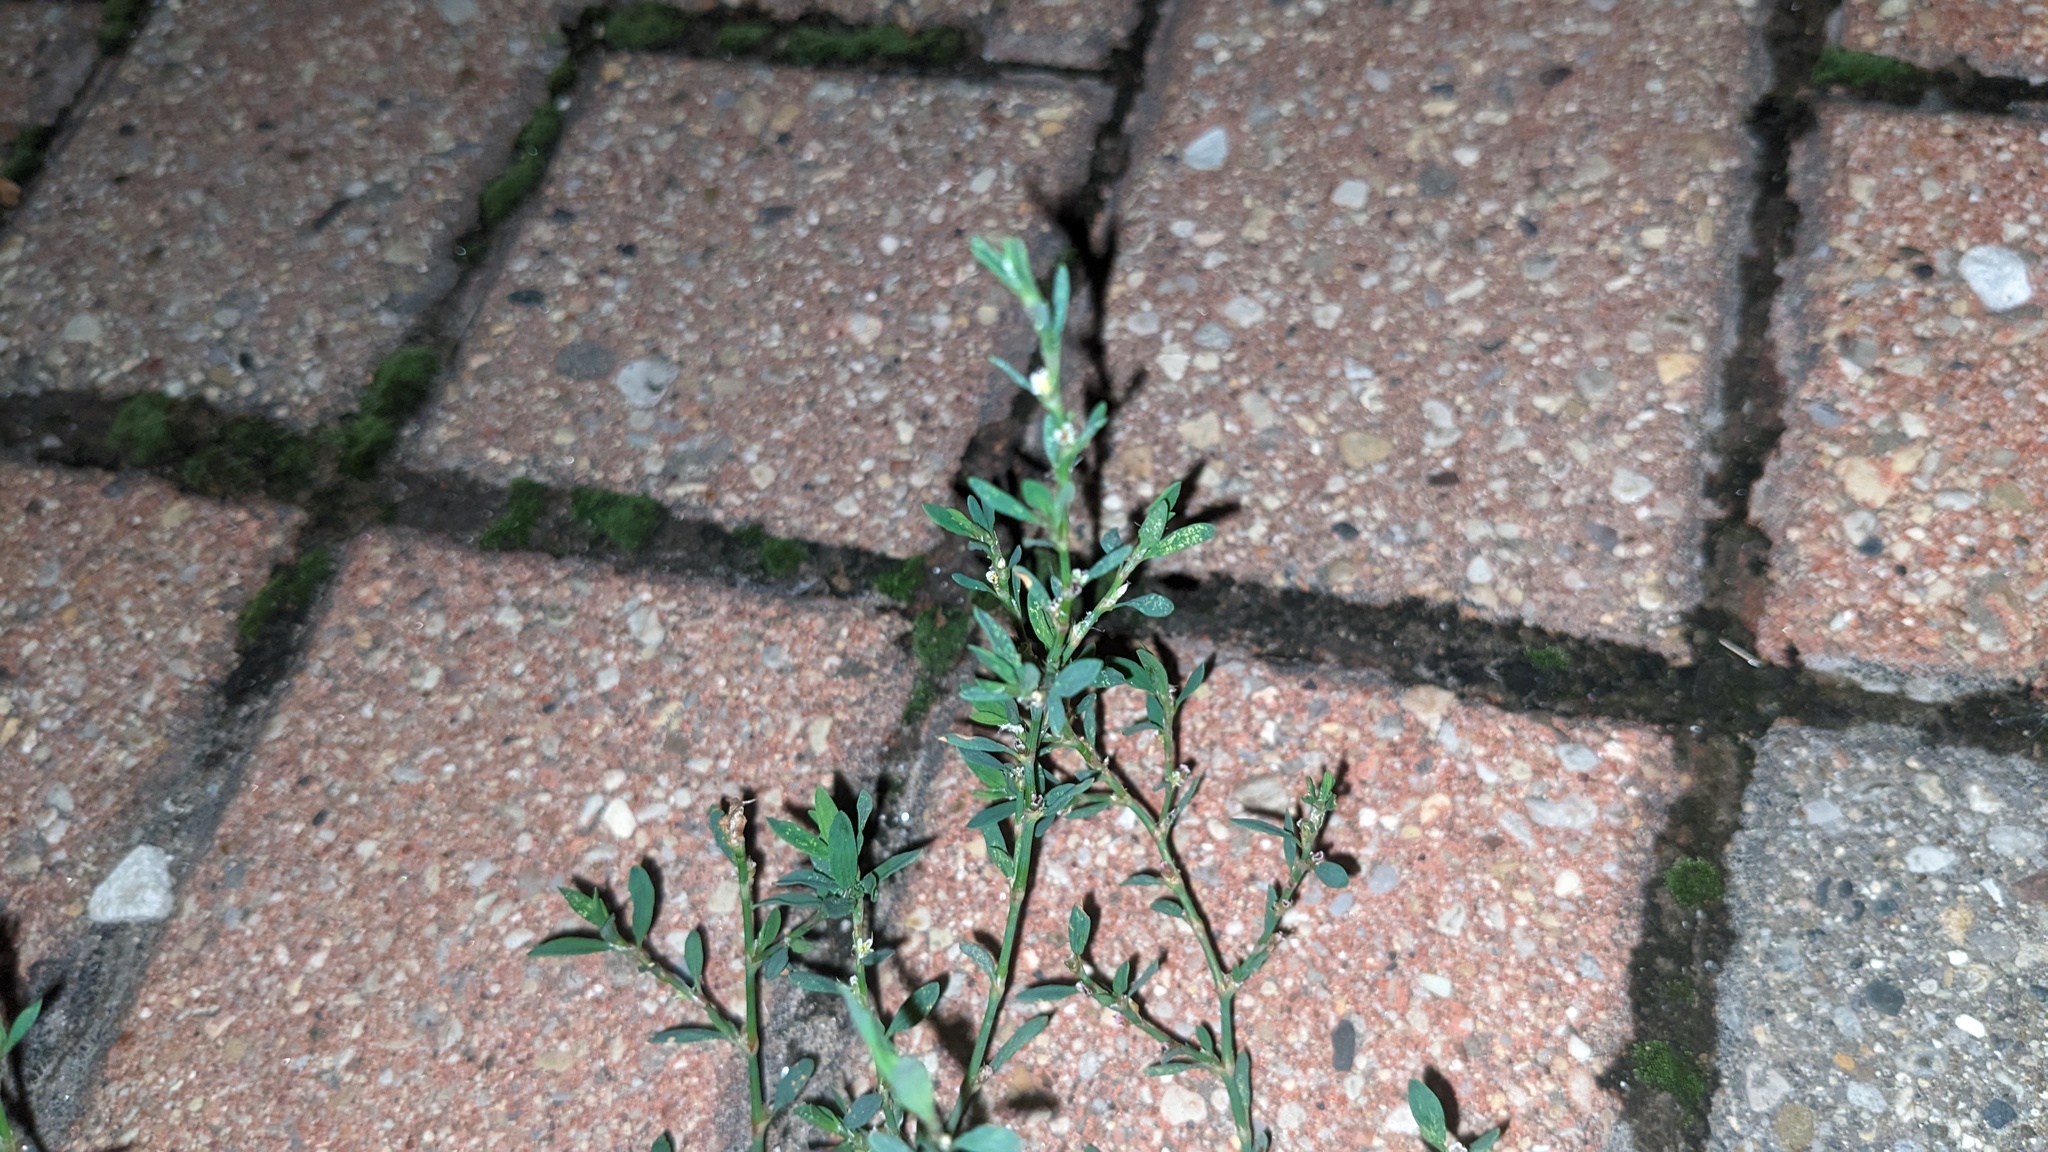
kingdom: Plantae
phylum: Tracheophyta
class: Magnoliopsida
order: Caryophyllales
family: Polygonaceae
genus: Polygonum
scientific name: Polygonum aviculare
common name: Prostrate knotweed
